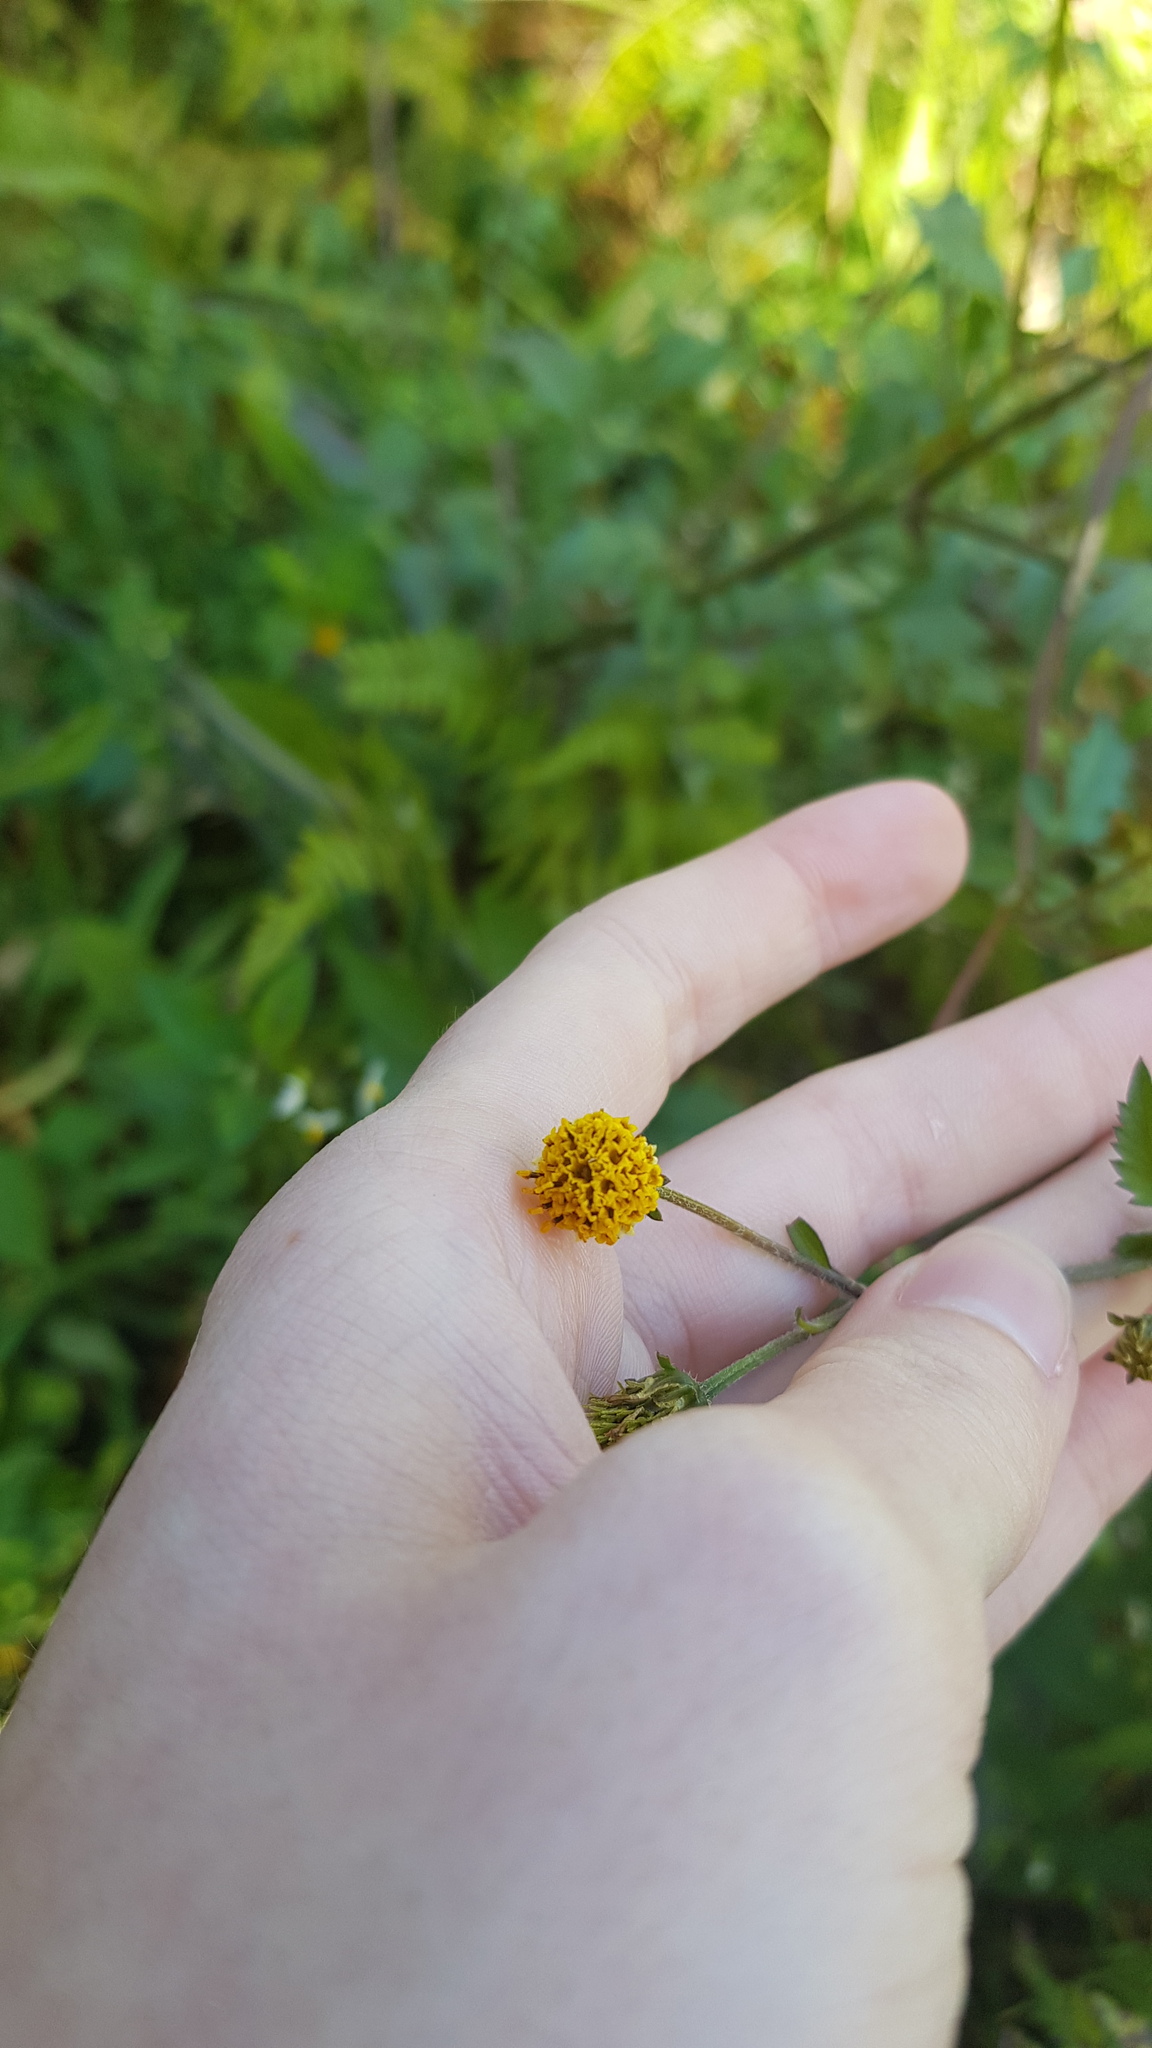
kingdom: Plantae
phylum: Tracheophyta
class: Magnoliopsida
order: Asterales
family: Asteraceae
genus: Bidens
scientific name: Bidens pilosa
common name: Black-jack
